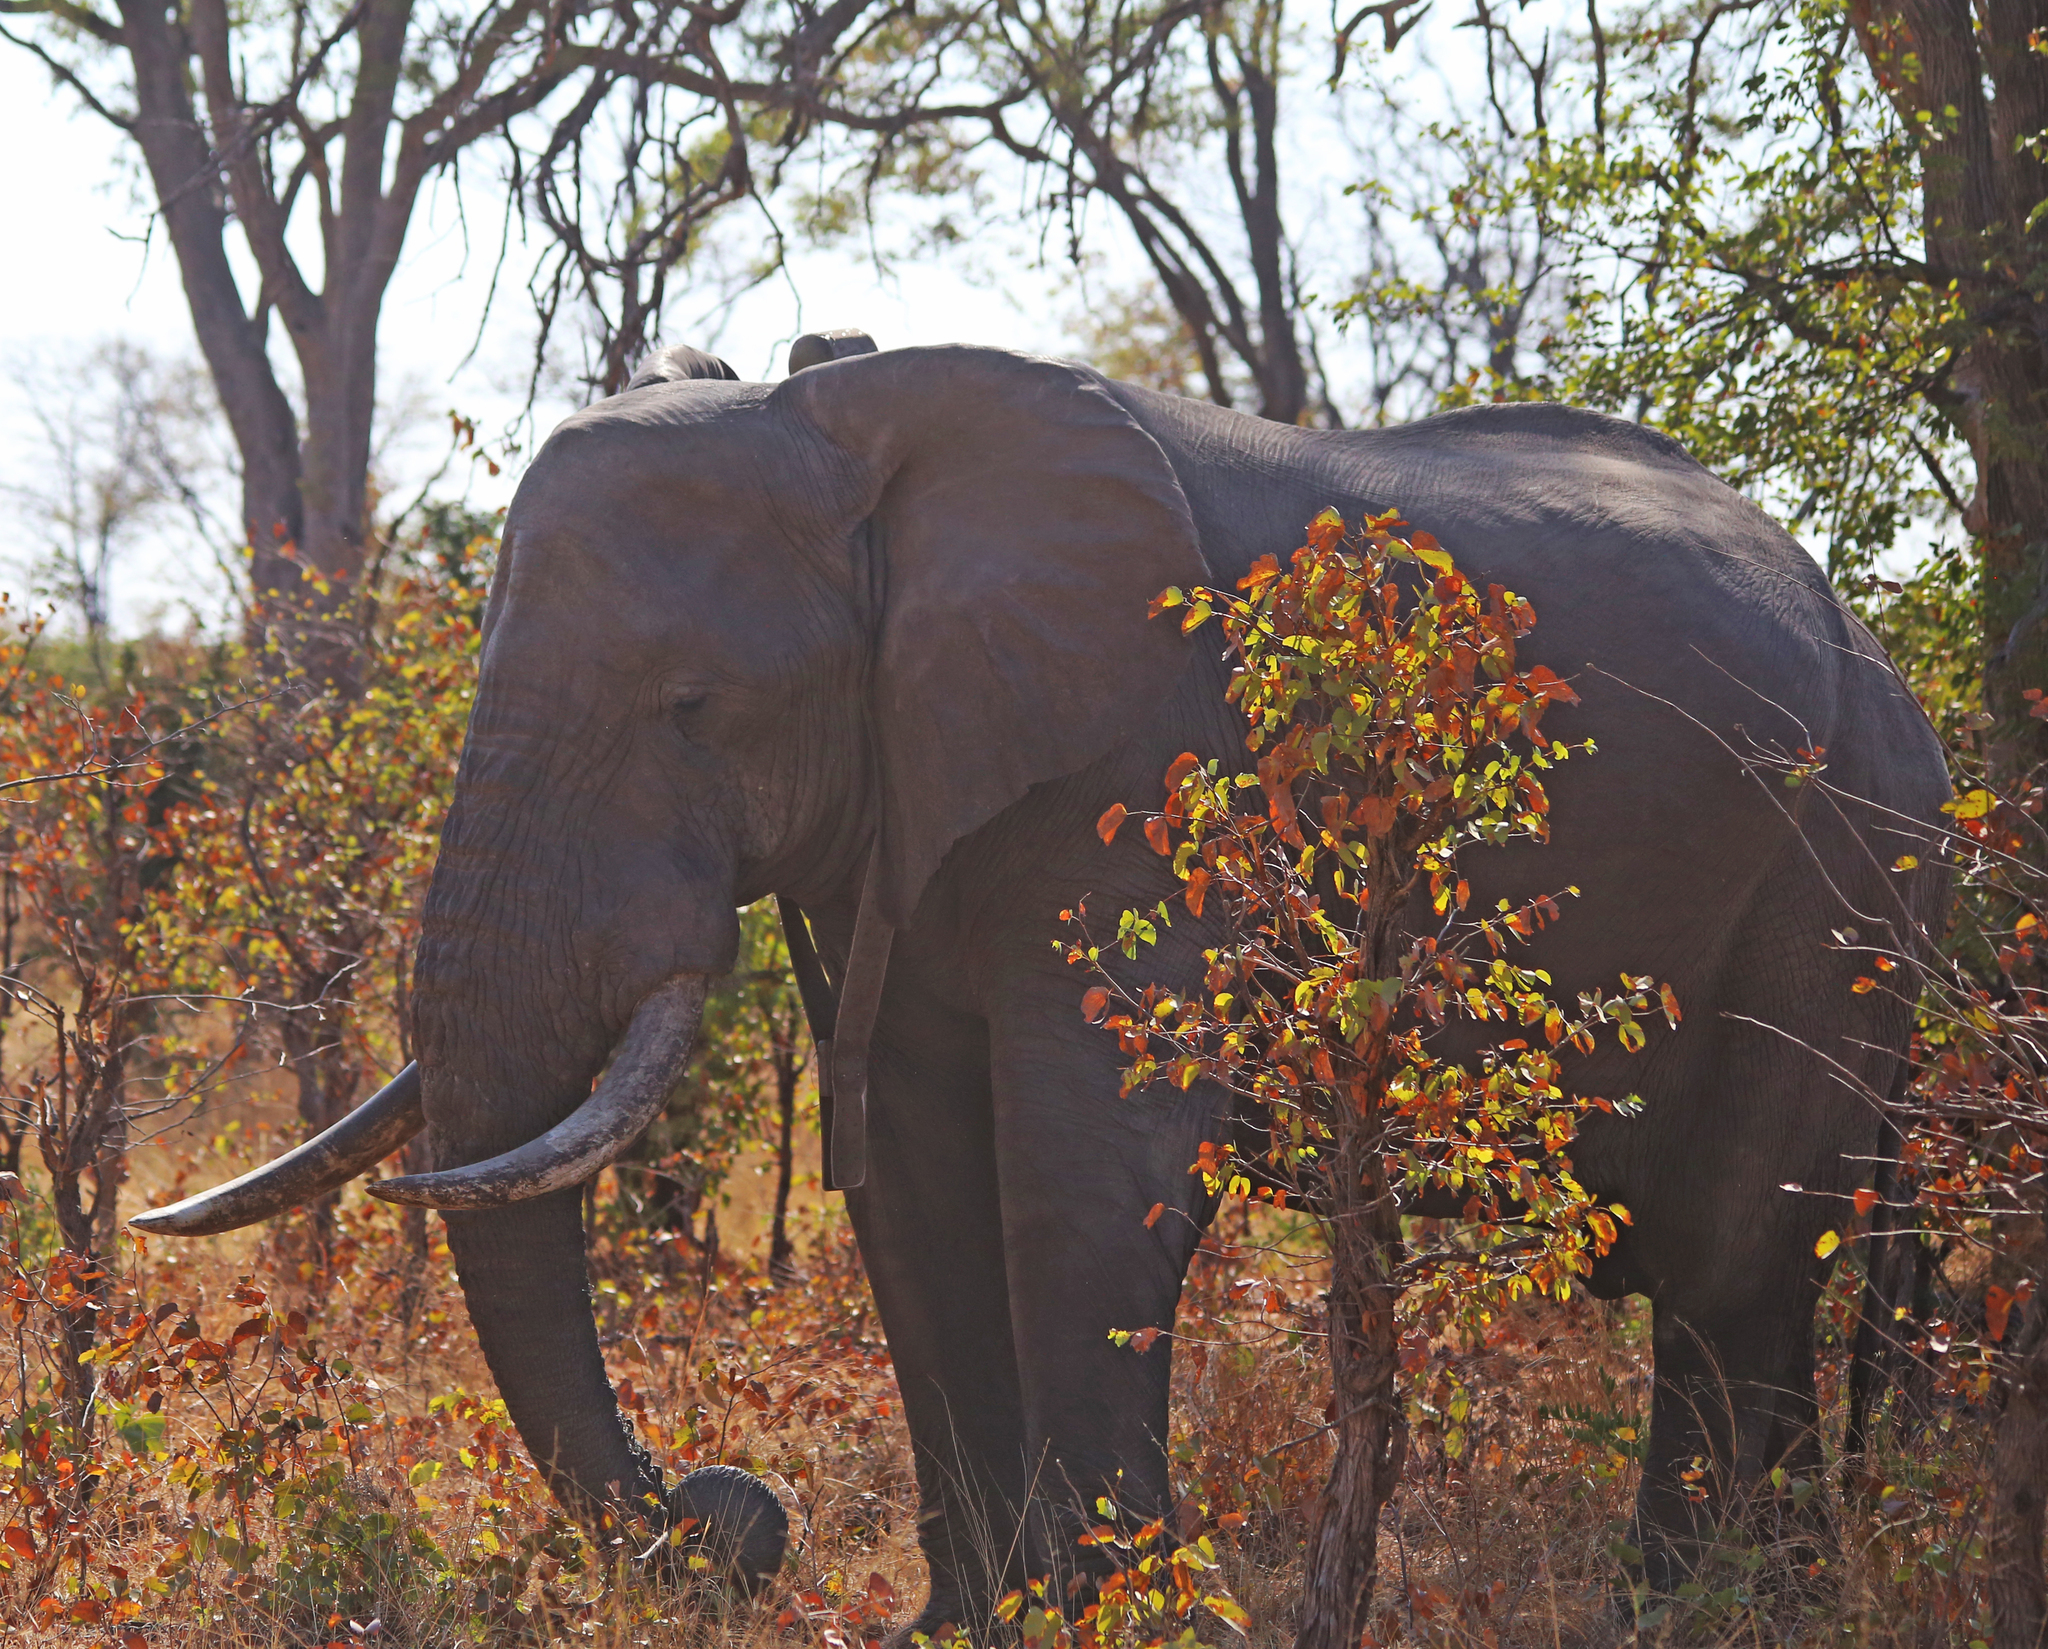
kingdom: Animalia
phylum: Chordata
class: Mammalia
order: Proboscidea
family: Elephantidae
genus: Loxodonta
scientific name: Loxodonta africana
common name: African elephant
